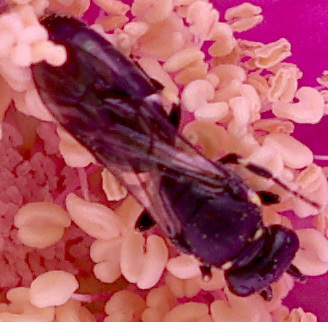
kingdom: Animalia
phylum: Arthropoda
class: Insecta
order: Hymenoptera
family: Colletidae
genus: Hylaeus
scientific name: Hylaeus modestus
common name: Yellow-faced bee
